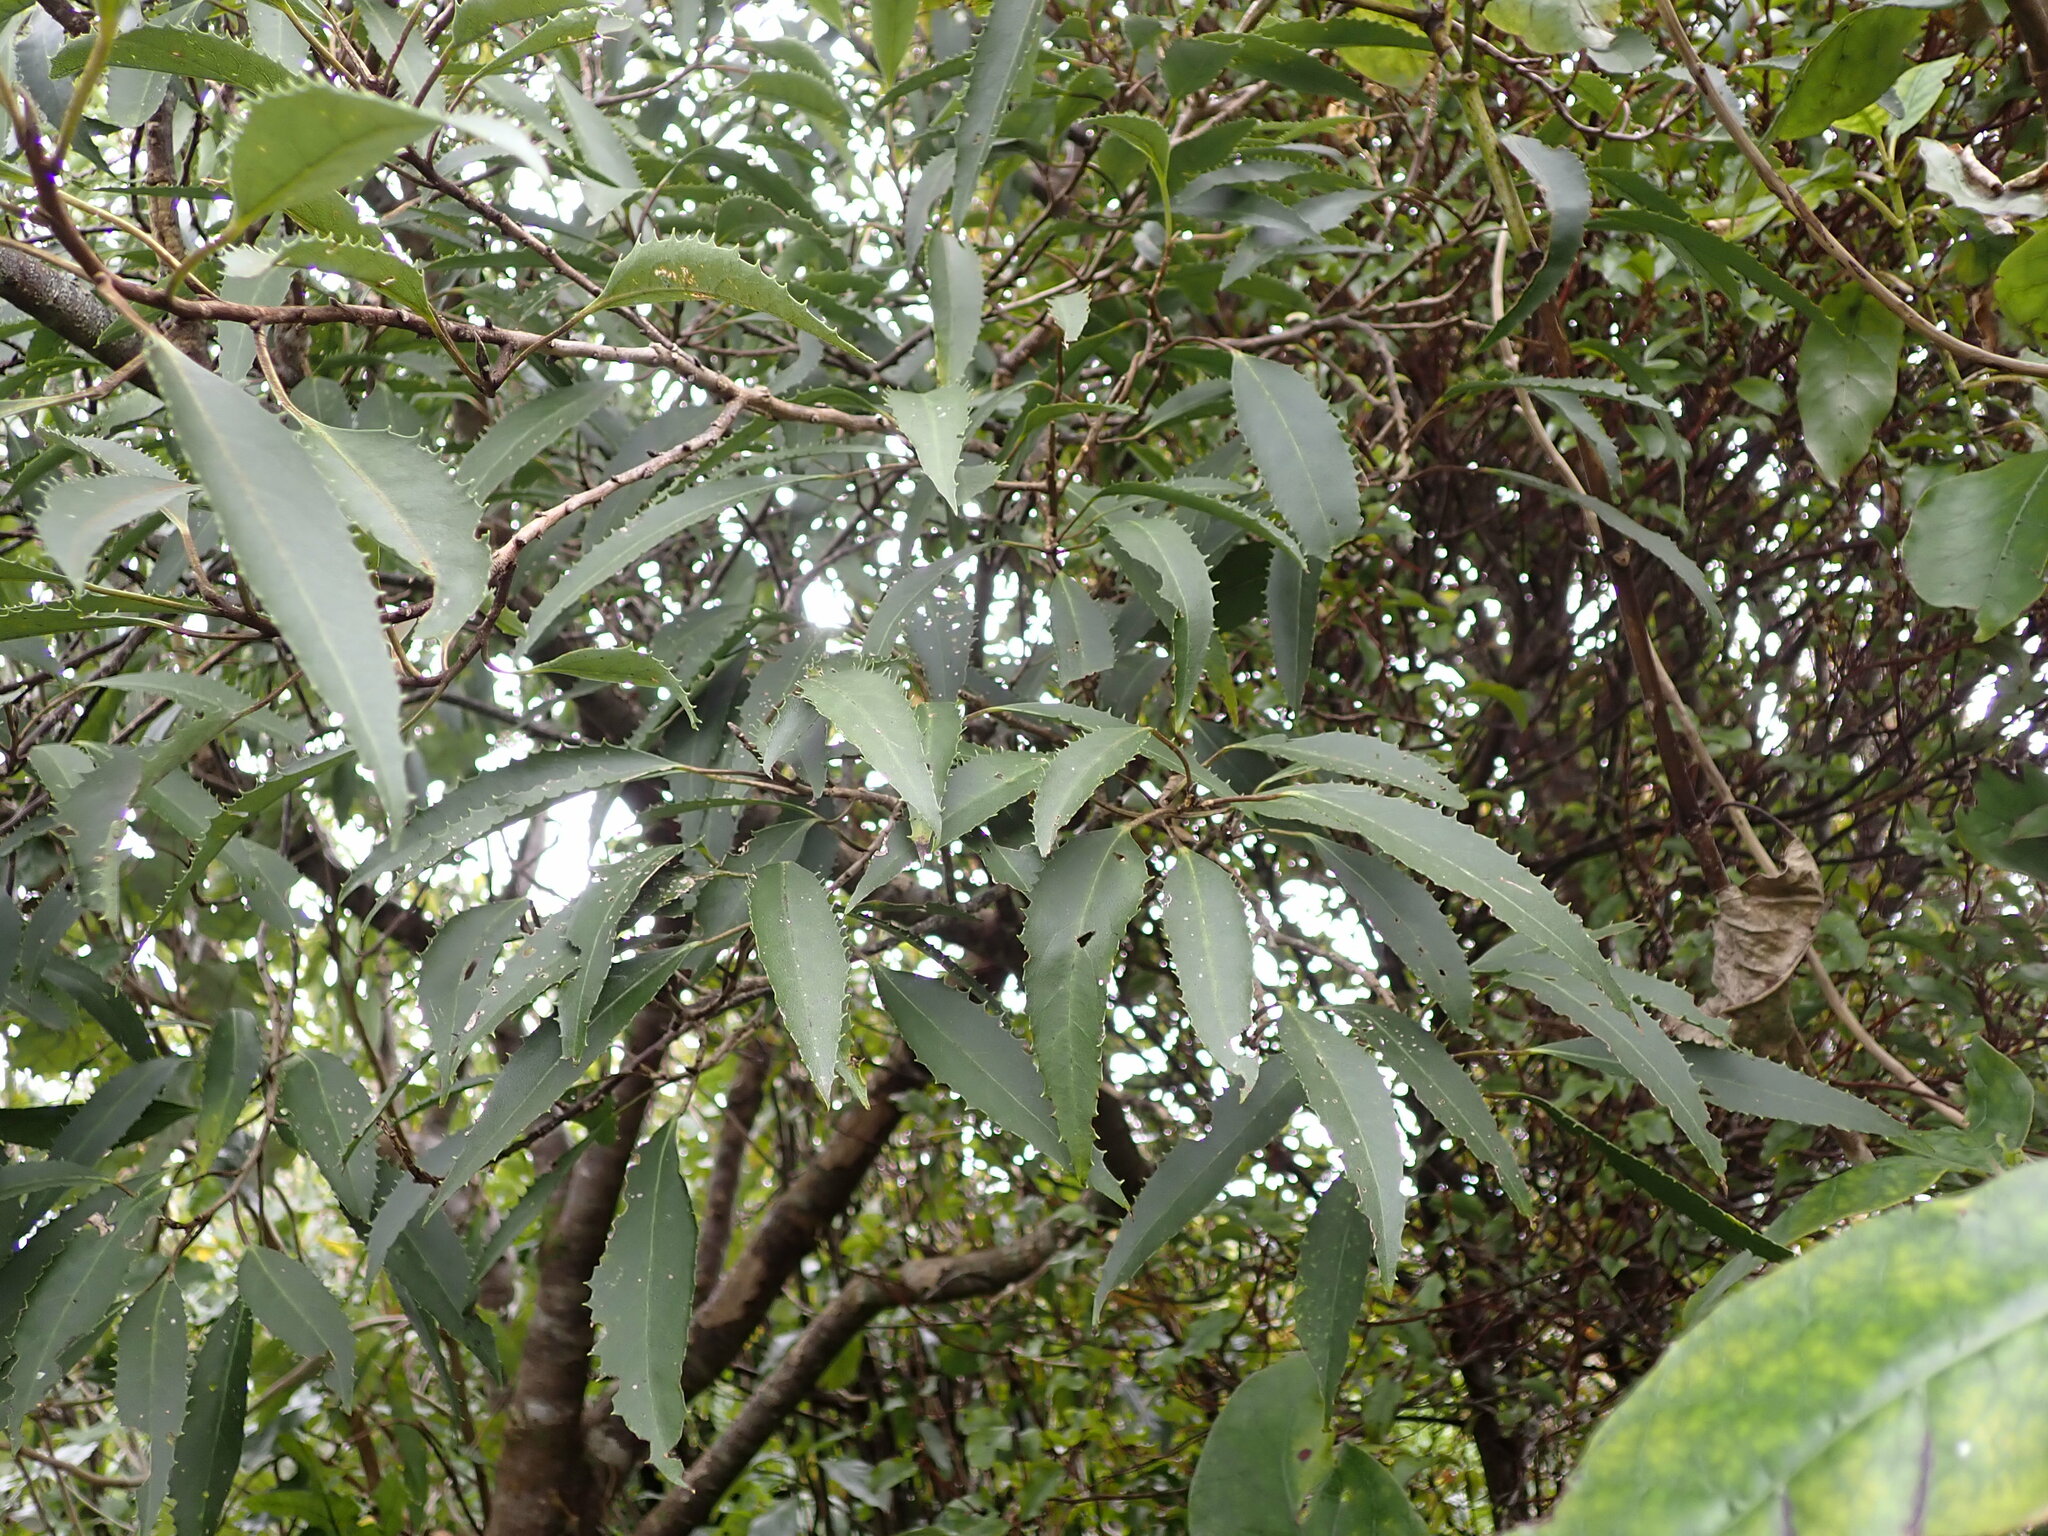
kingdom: Plantae
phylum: Tracheophyta
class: Magnoliopsida
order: Malvales
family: Malvaceae
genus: Hoheria
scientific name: Hoheria sexstylosa
